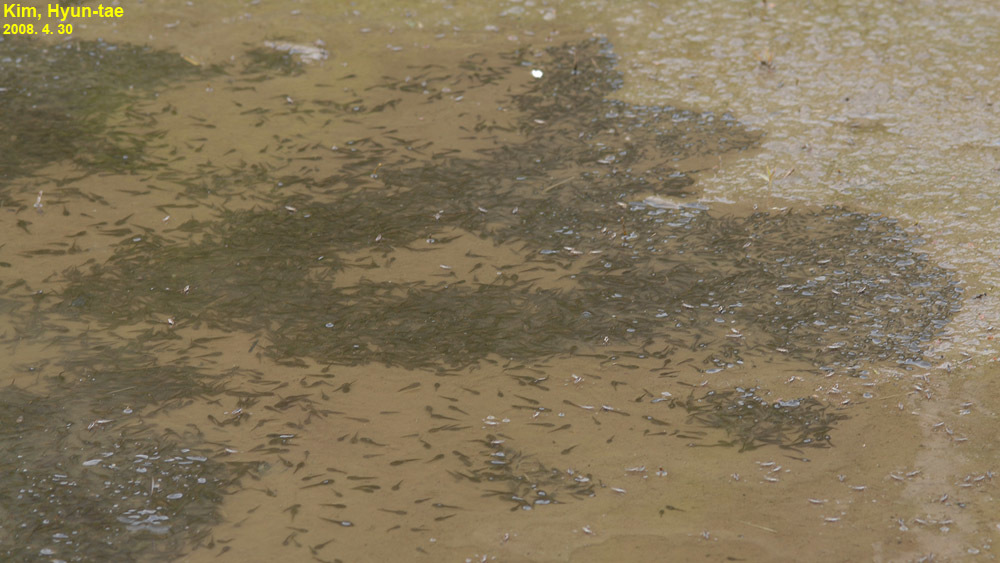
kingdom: Animalia
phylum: Chordata
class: Amphibia
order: Anura
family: Ranidae
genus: Rana
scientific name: Rana uenoi
